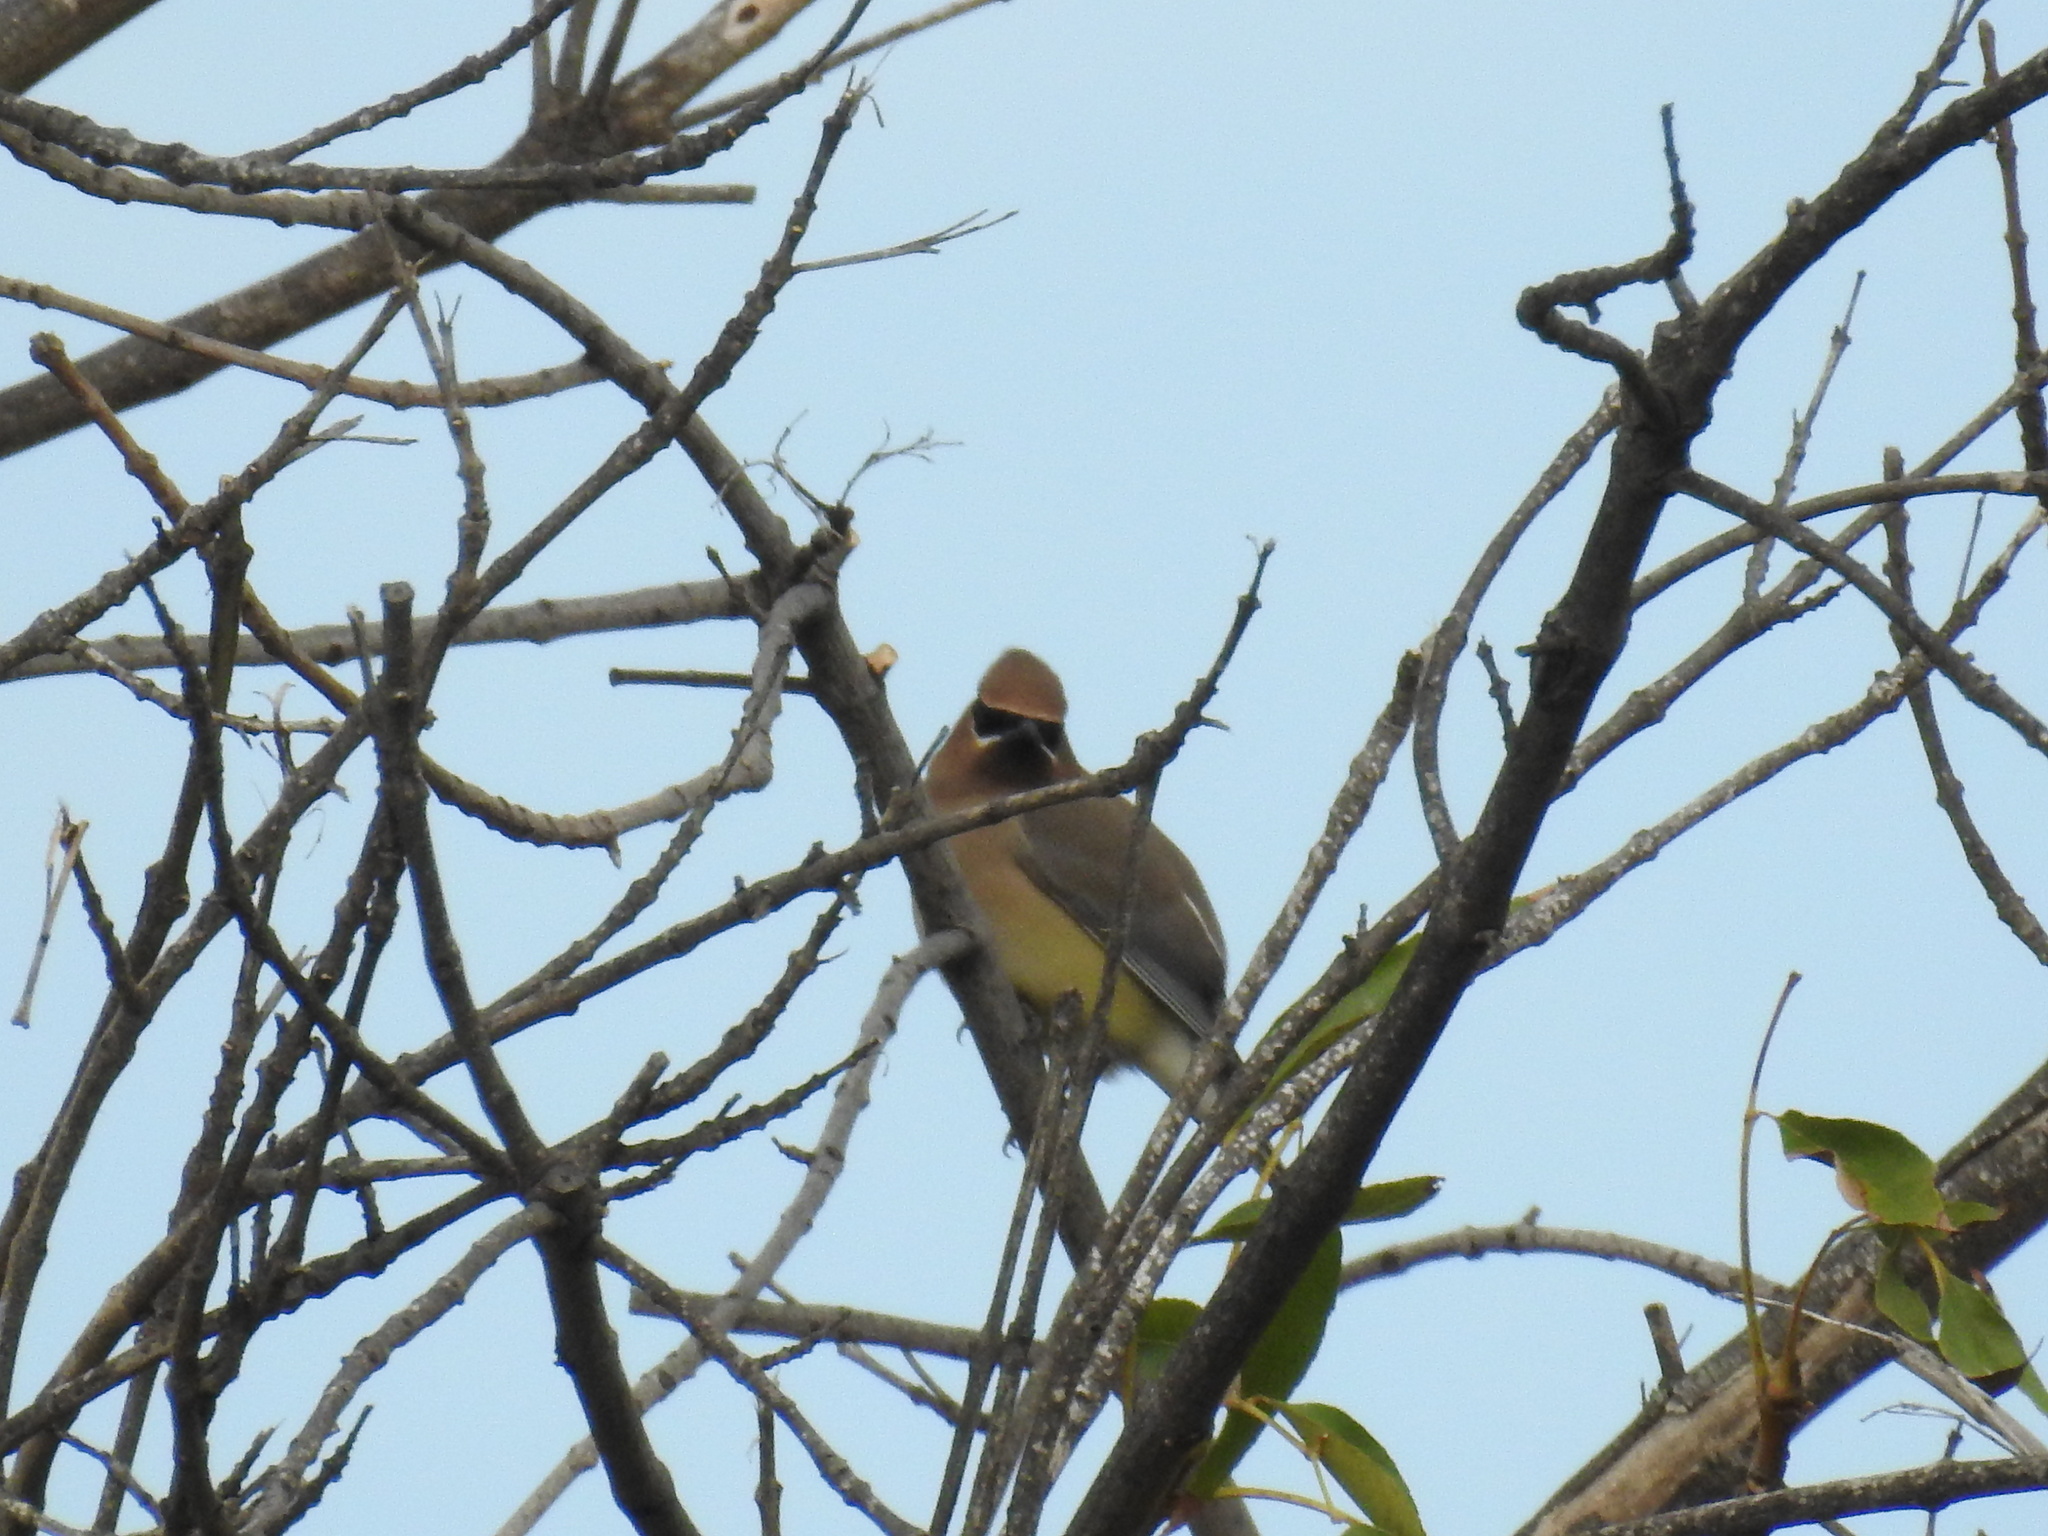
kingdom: Animalia
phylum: Chordata
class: Aves
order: Passeriformes
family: Bombycillidae
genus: Bombycilla
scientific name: Bombycilla cedrorum
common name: Cedar waxwing
